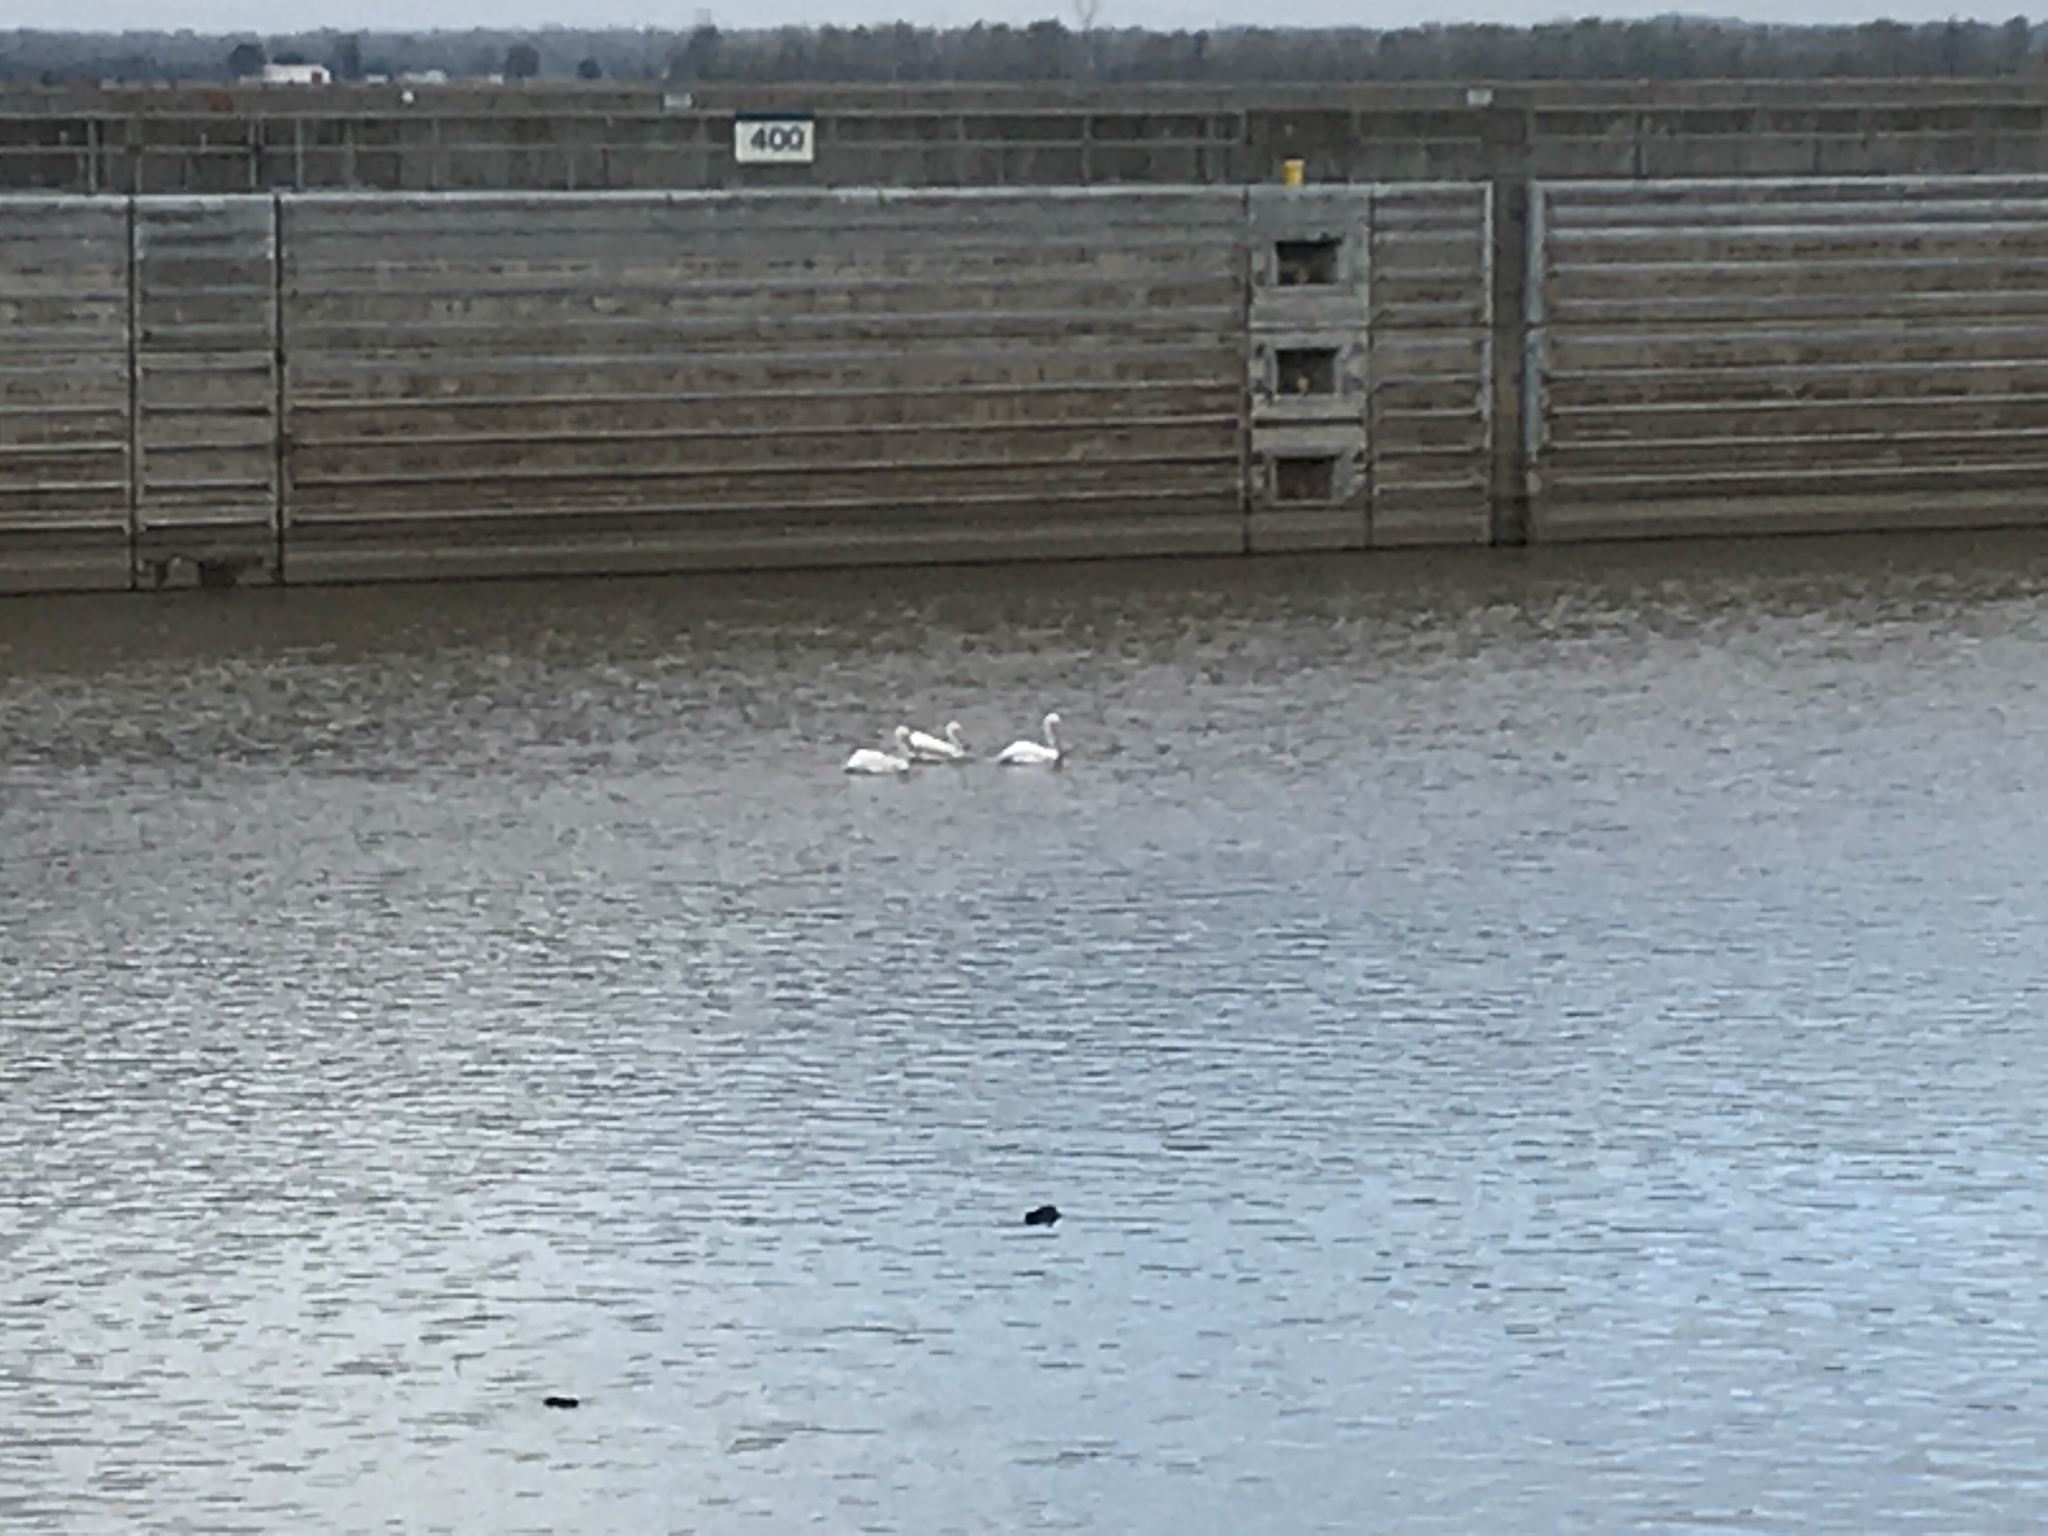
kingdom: Animalia
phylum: Chordata
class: Aves
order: Pelecaniformes
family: Pelecanidae
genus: Pelecanus
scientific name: Pelecanus erythrorhynchos
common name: American white pelican
